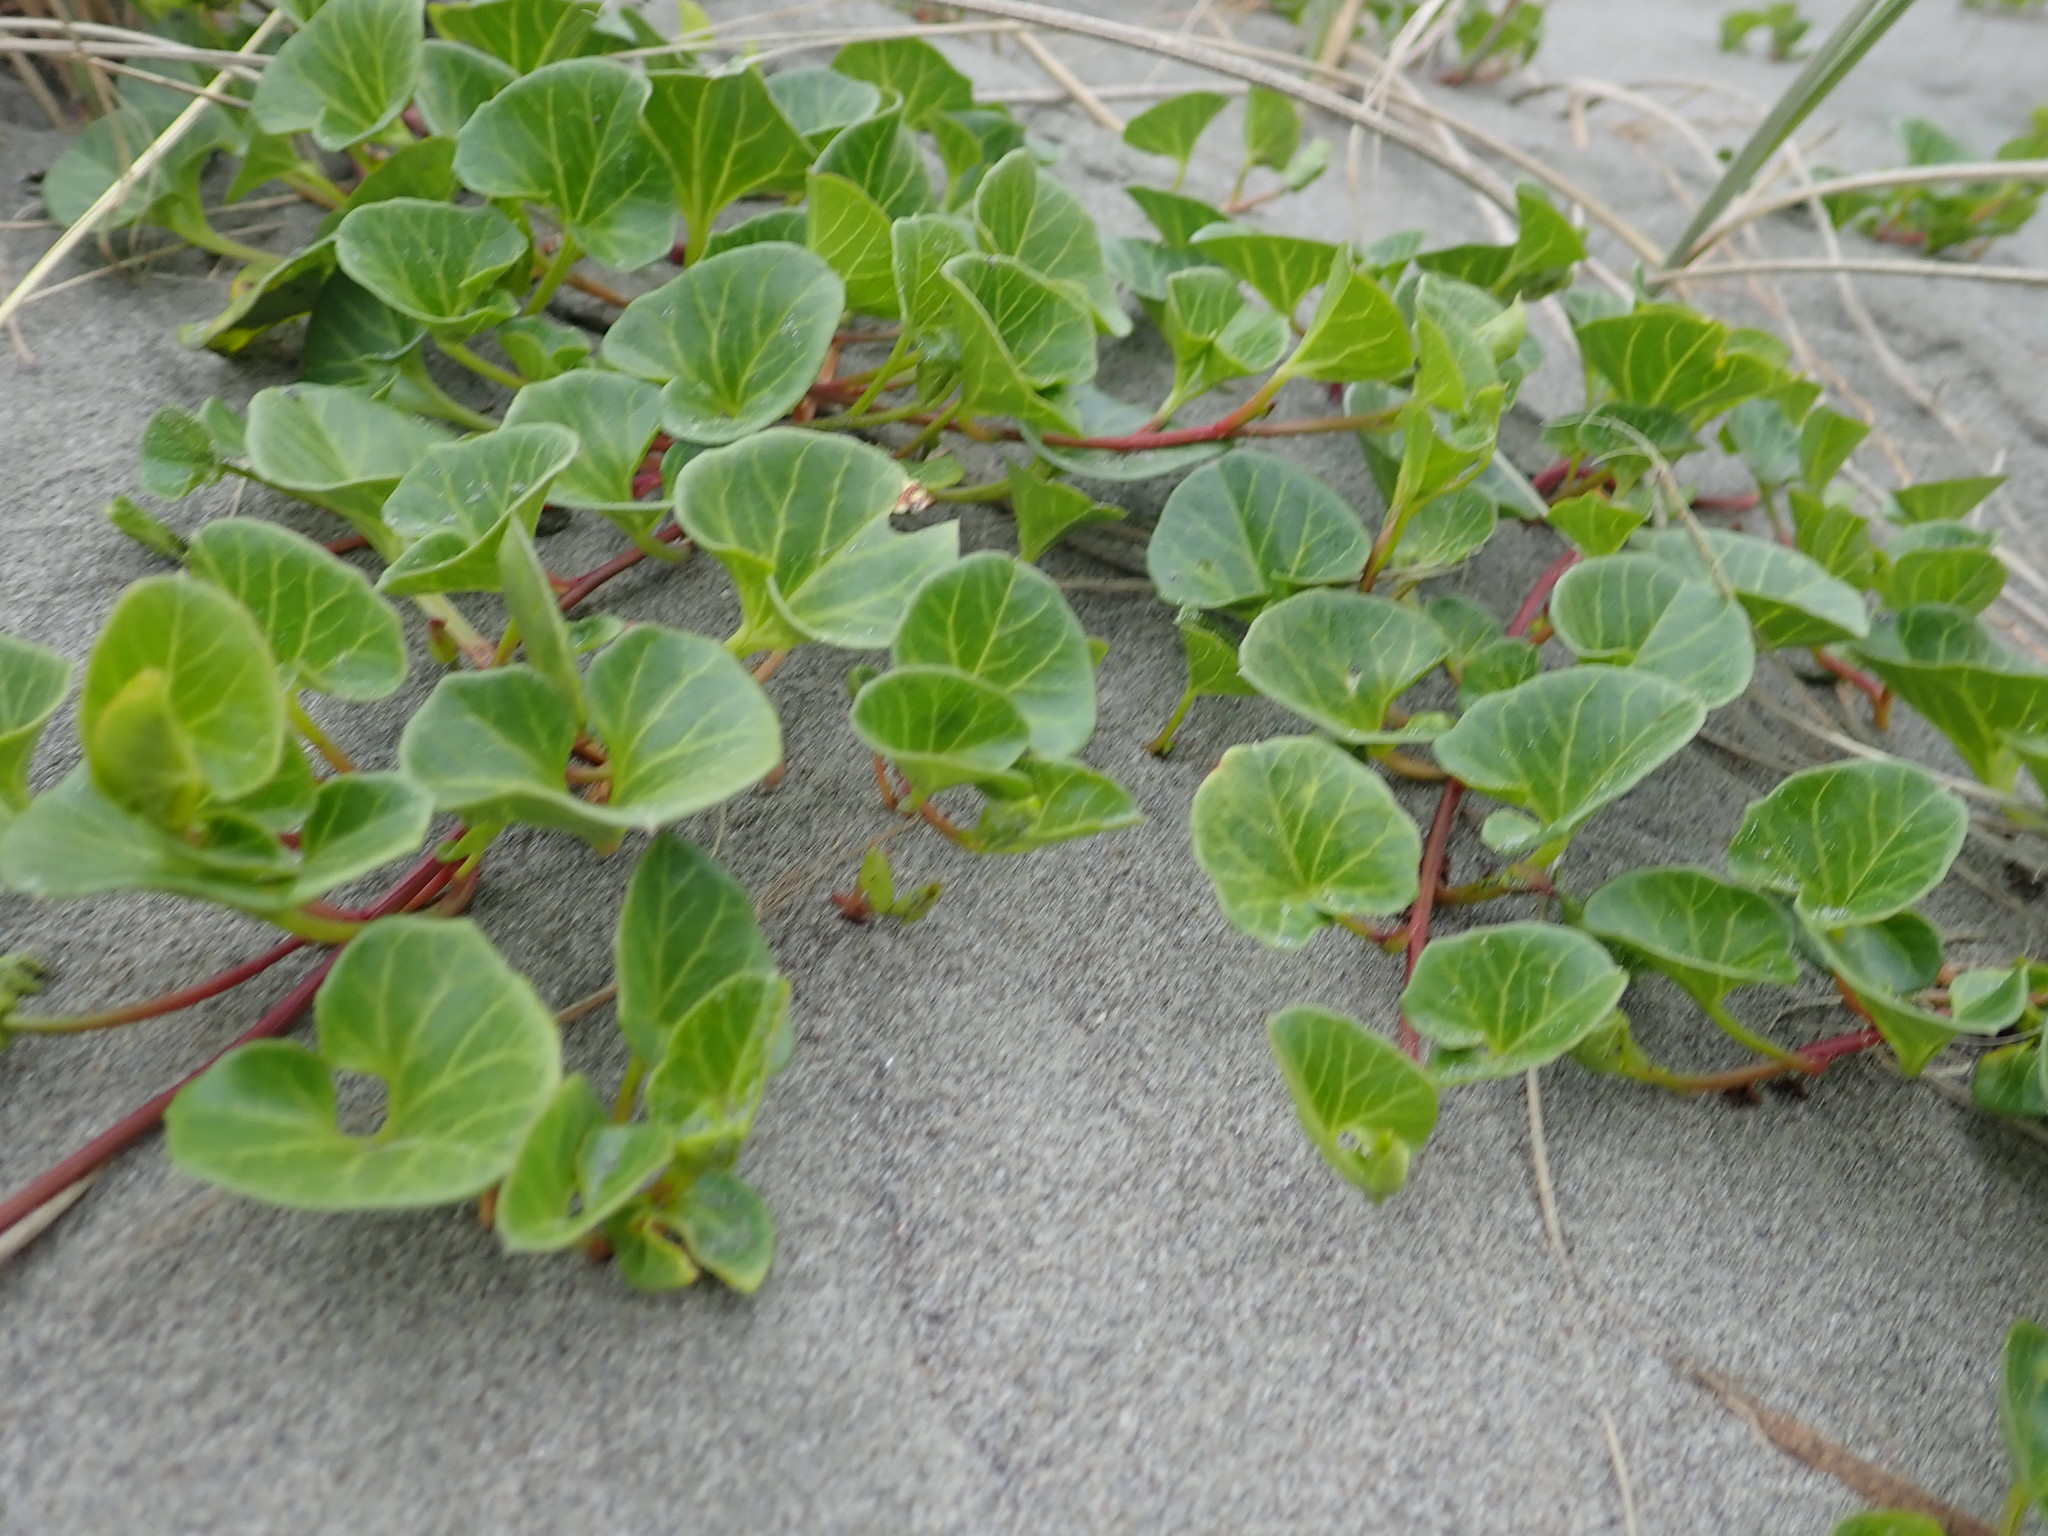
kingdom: Plantae
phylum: Tracheophyta
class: Magnoliopsida
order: Solanales
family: Convolvulaceae
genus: Calystegia
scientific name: Calystegia soldanella
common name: Sea bindweed
